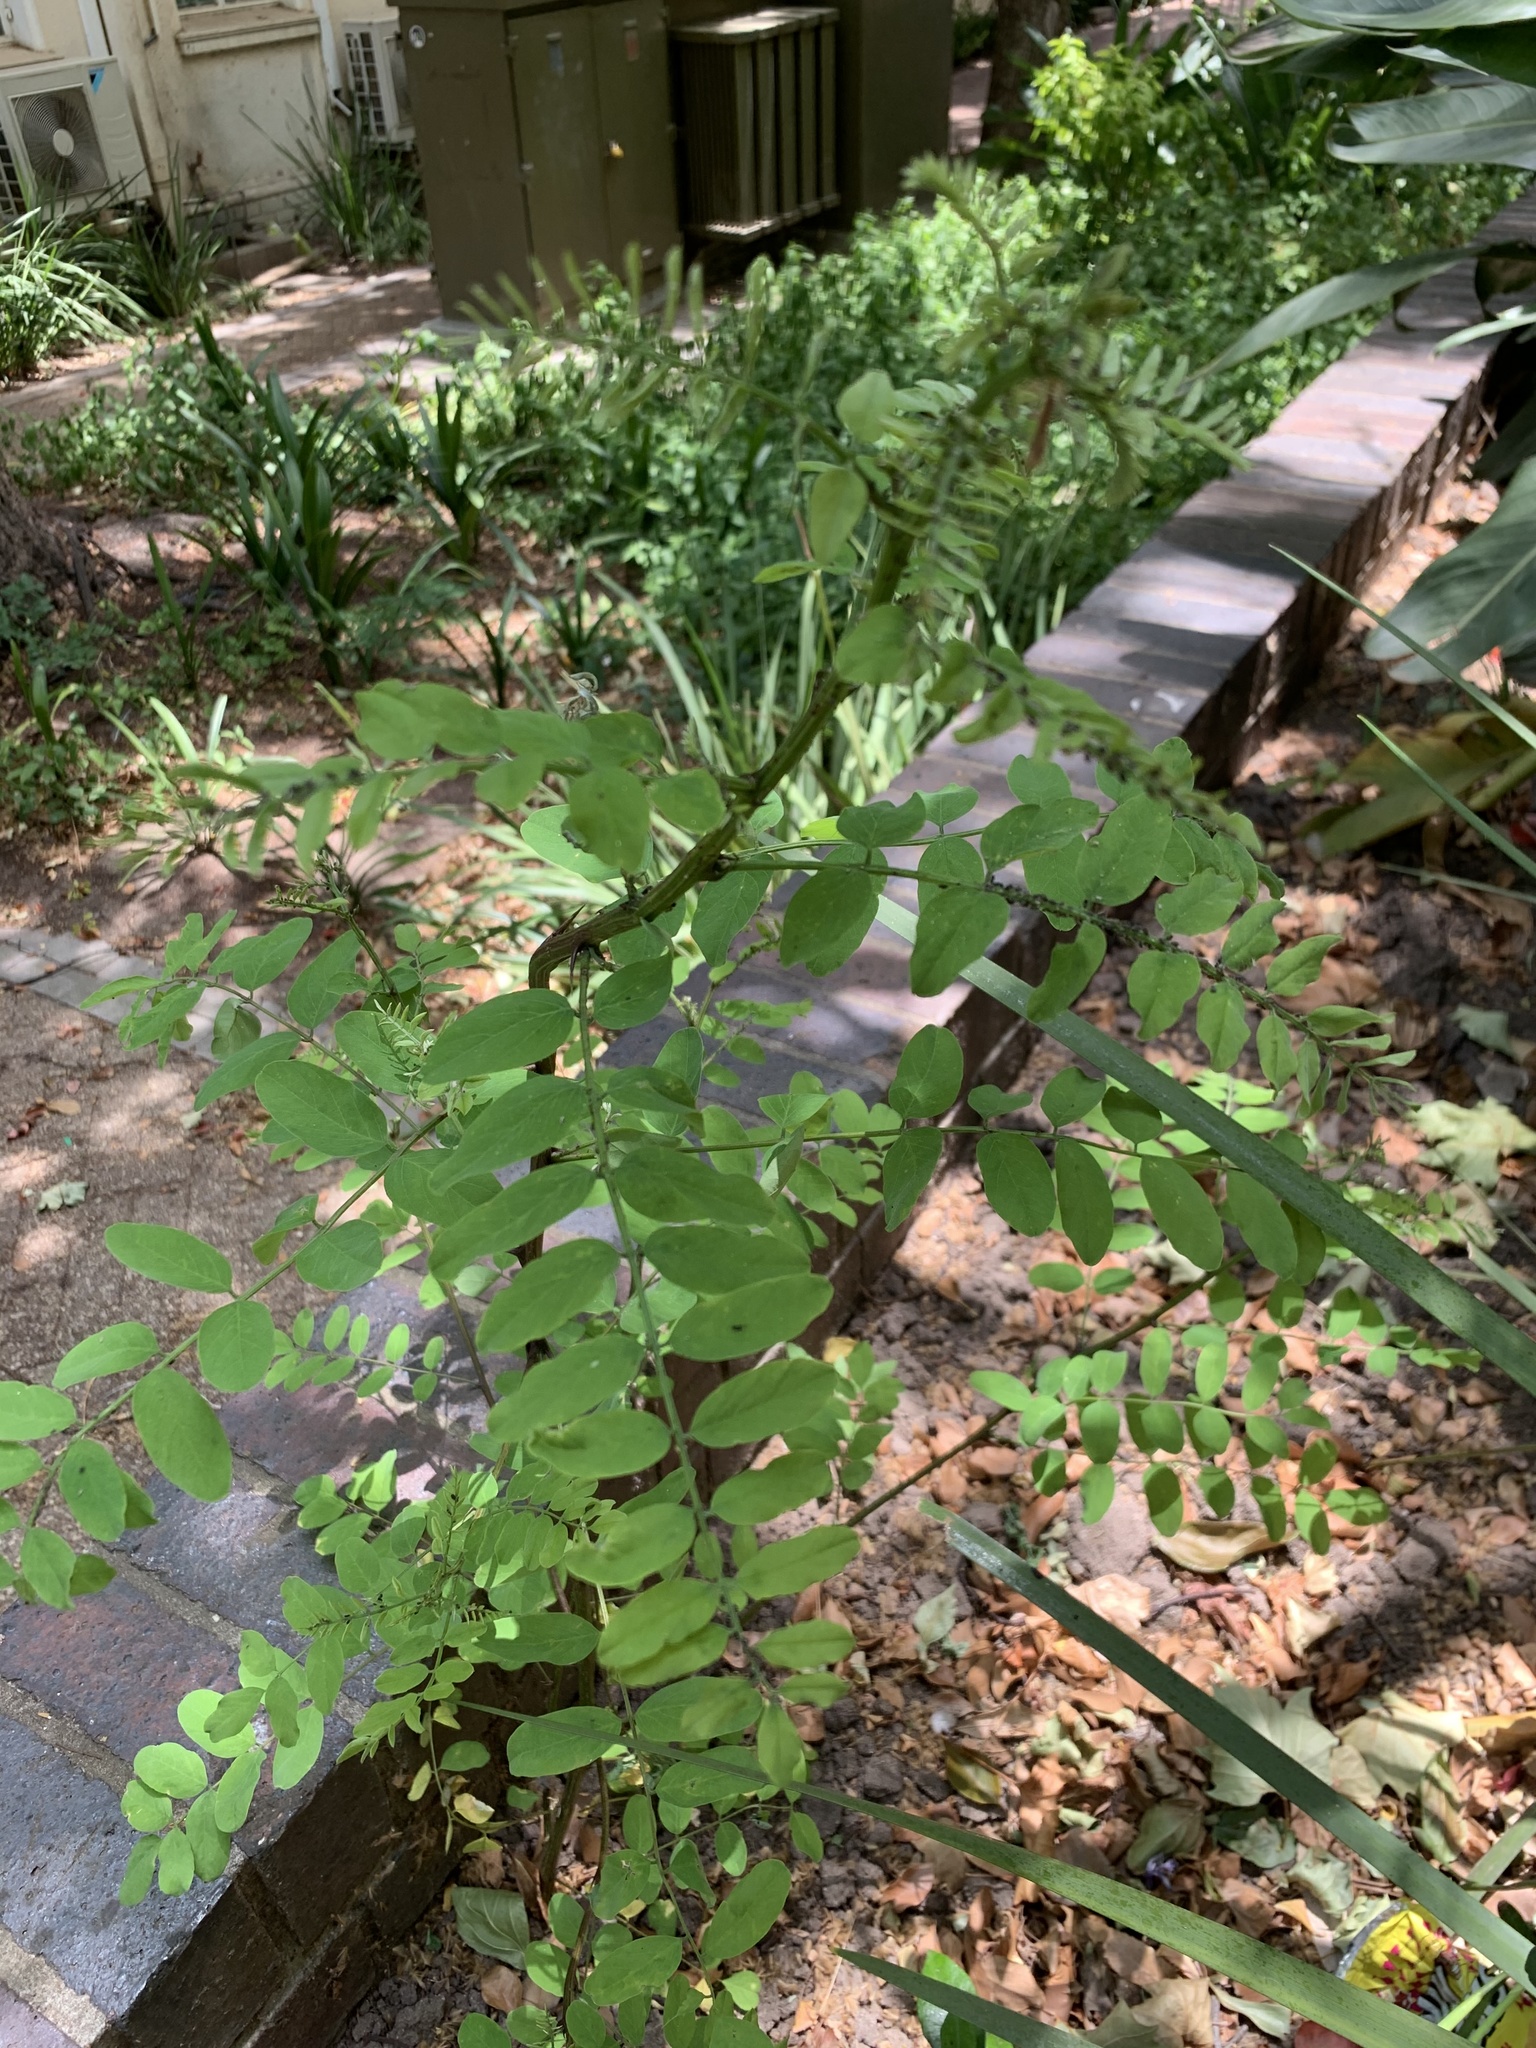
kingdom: Plantae
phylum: Tracheophyta
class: Magnoliopsida
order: Fabales
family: Fabaceae
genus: Robinia
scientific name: Robinia pseudoacacia
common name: Black locust
